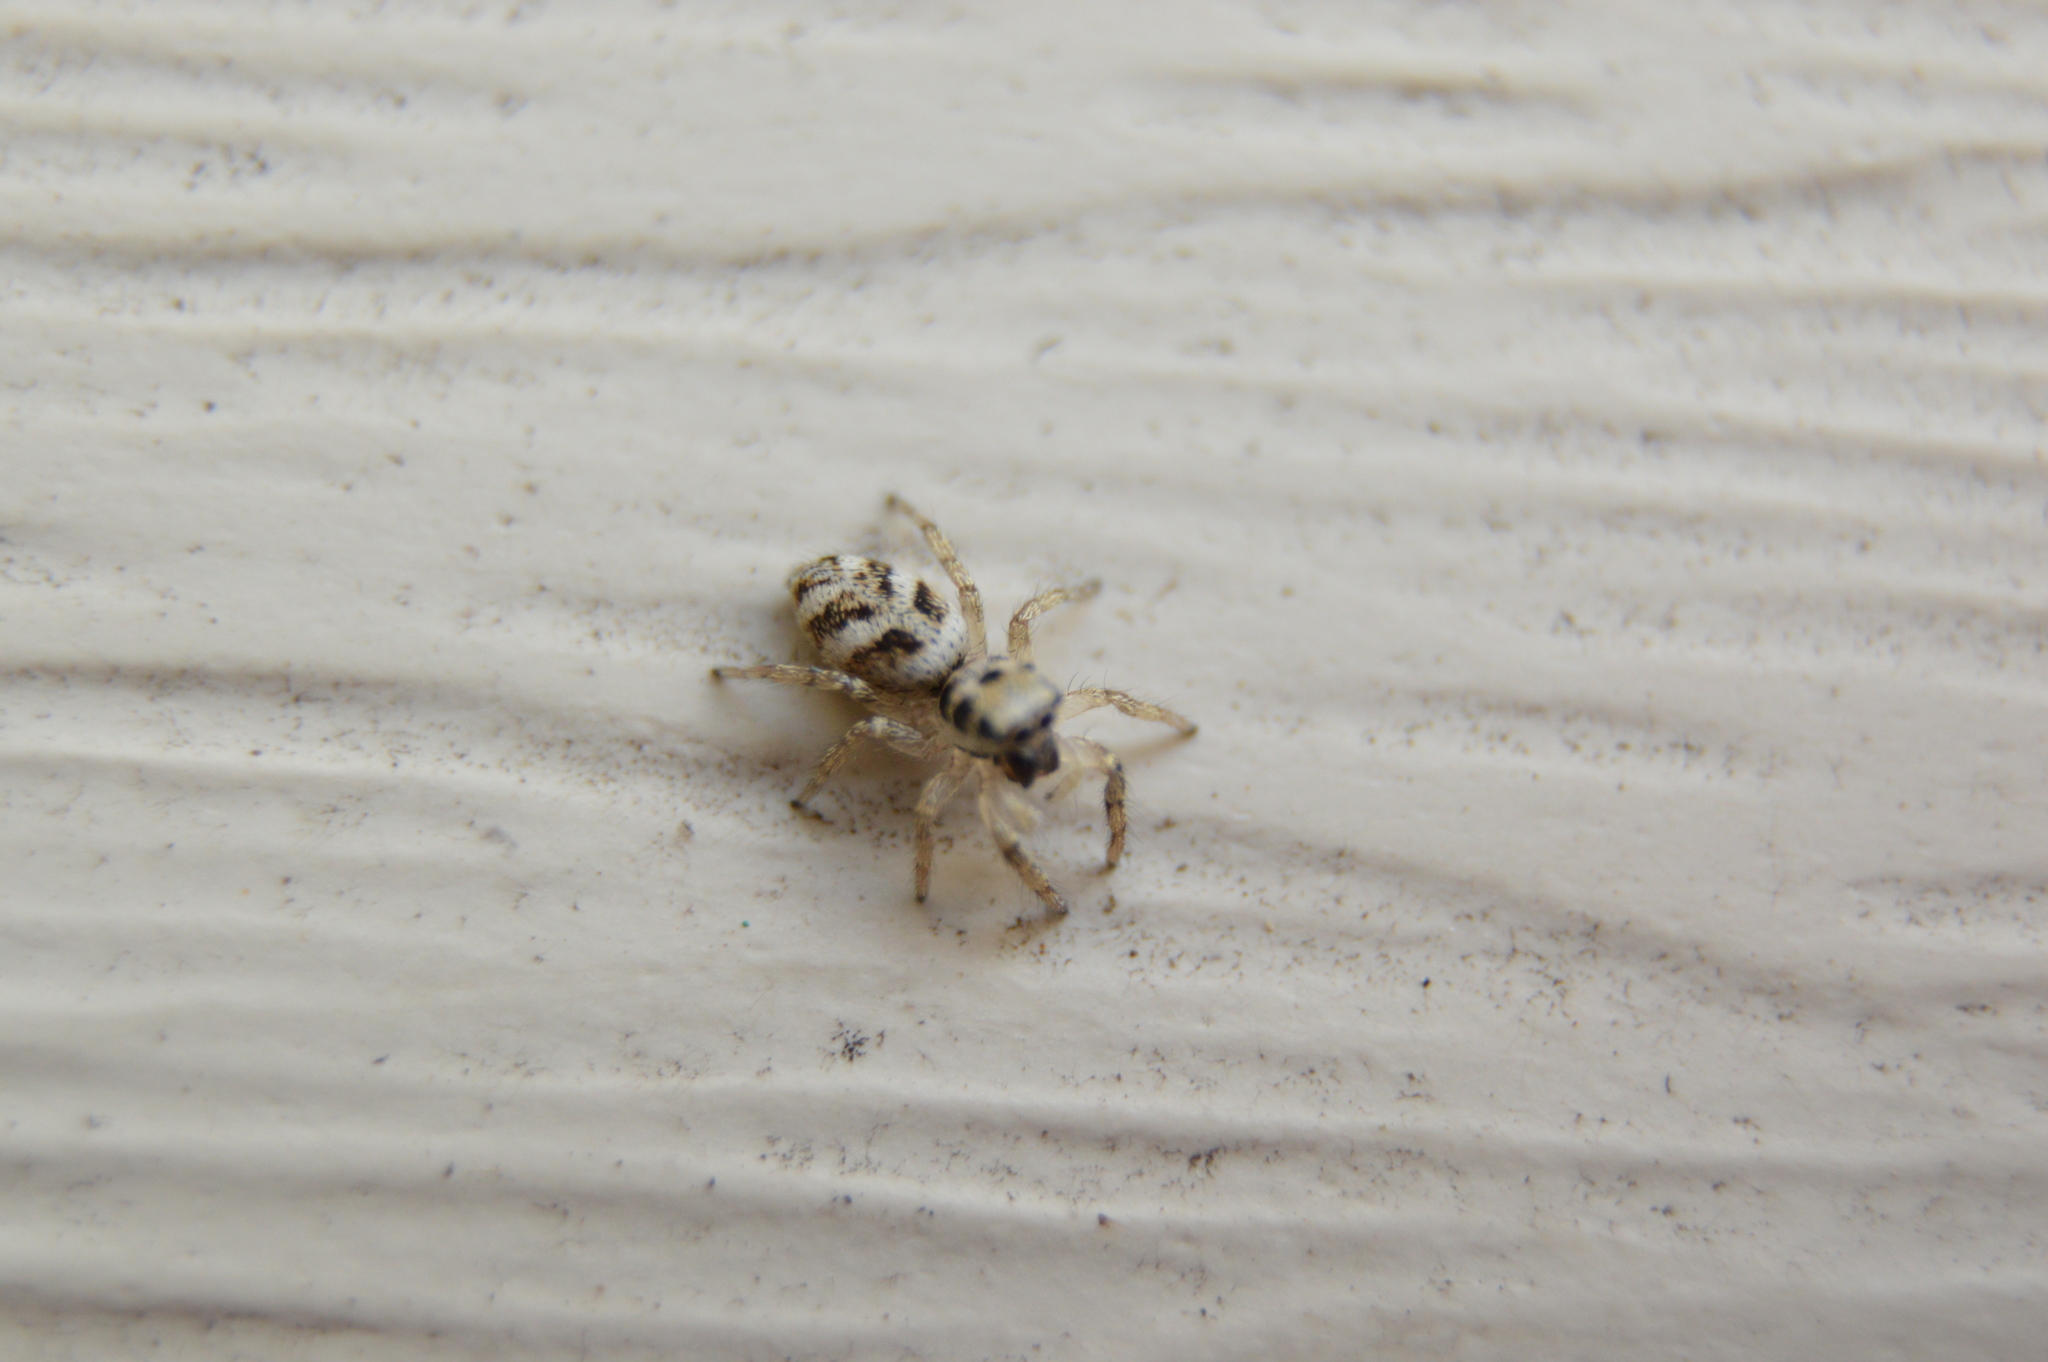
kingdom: Animalia
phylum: Arthropoda
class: Arachnida
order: Araneae
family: Salticidae
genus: Salticus
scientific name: Salticus scenicus
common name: Zebra jumper
